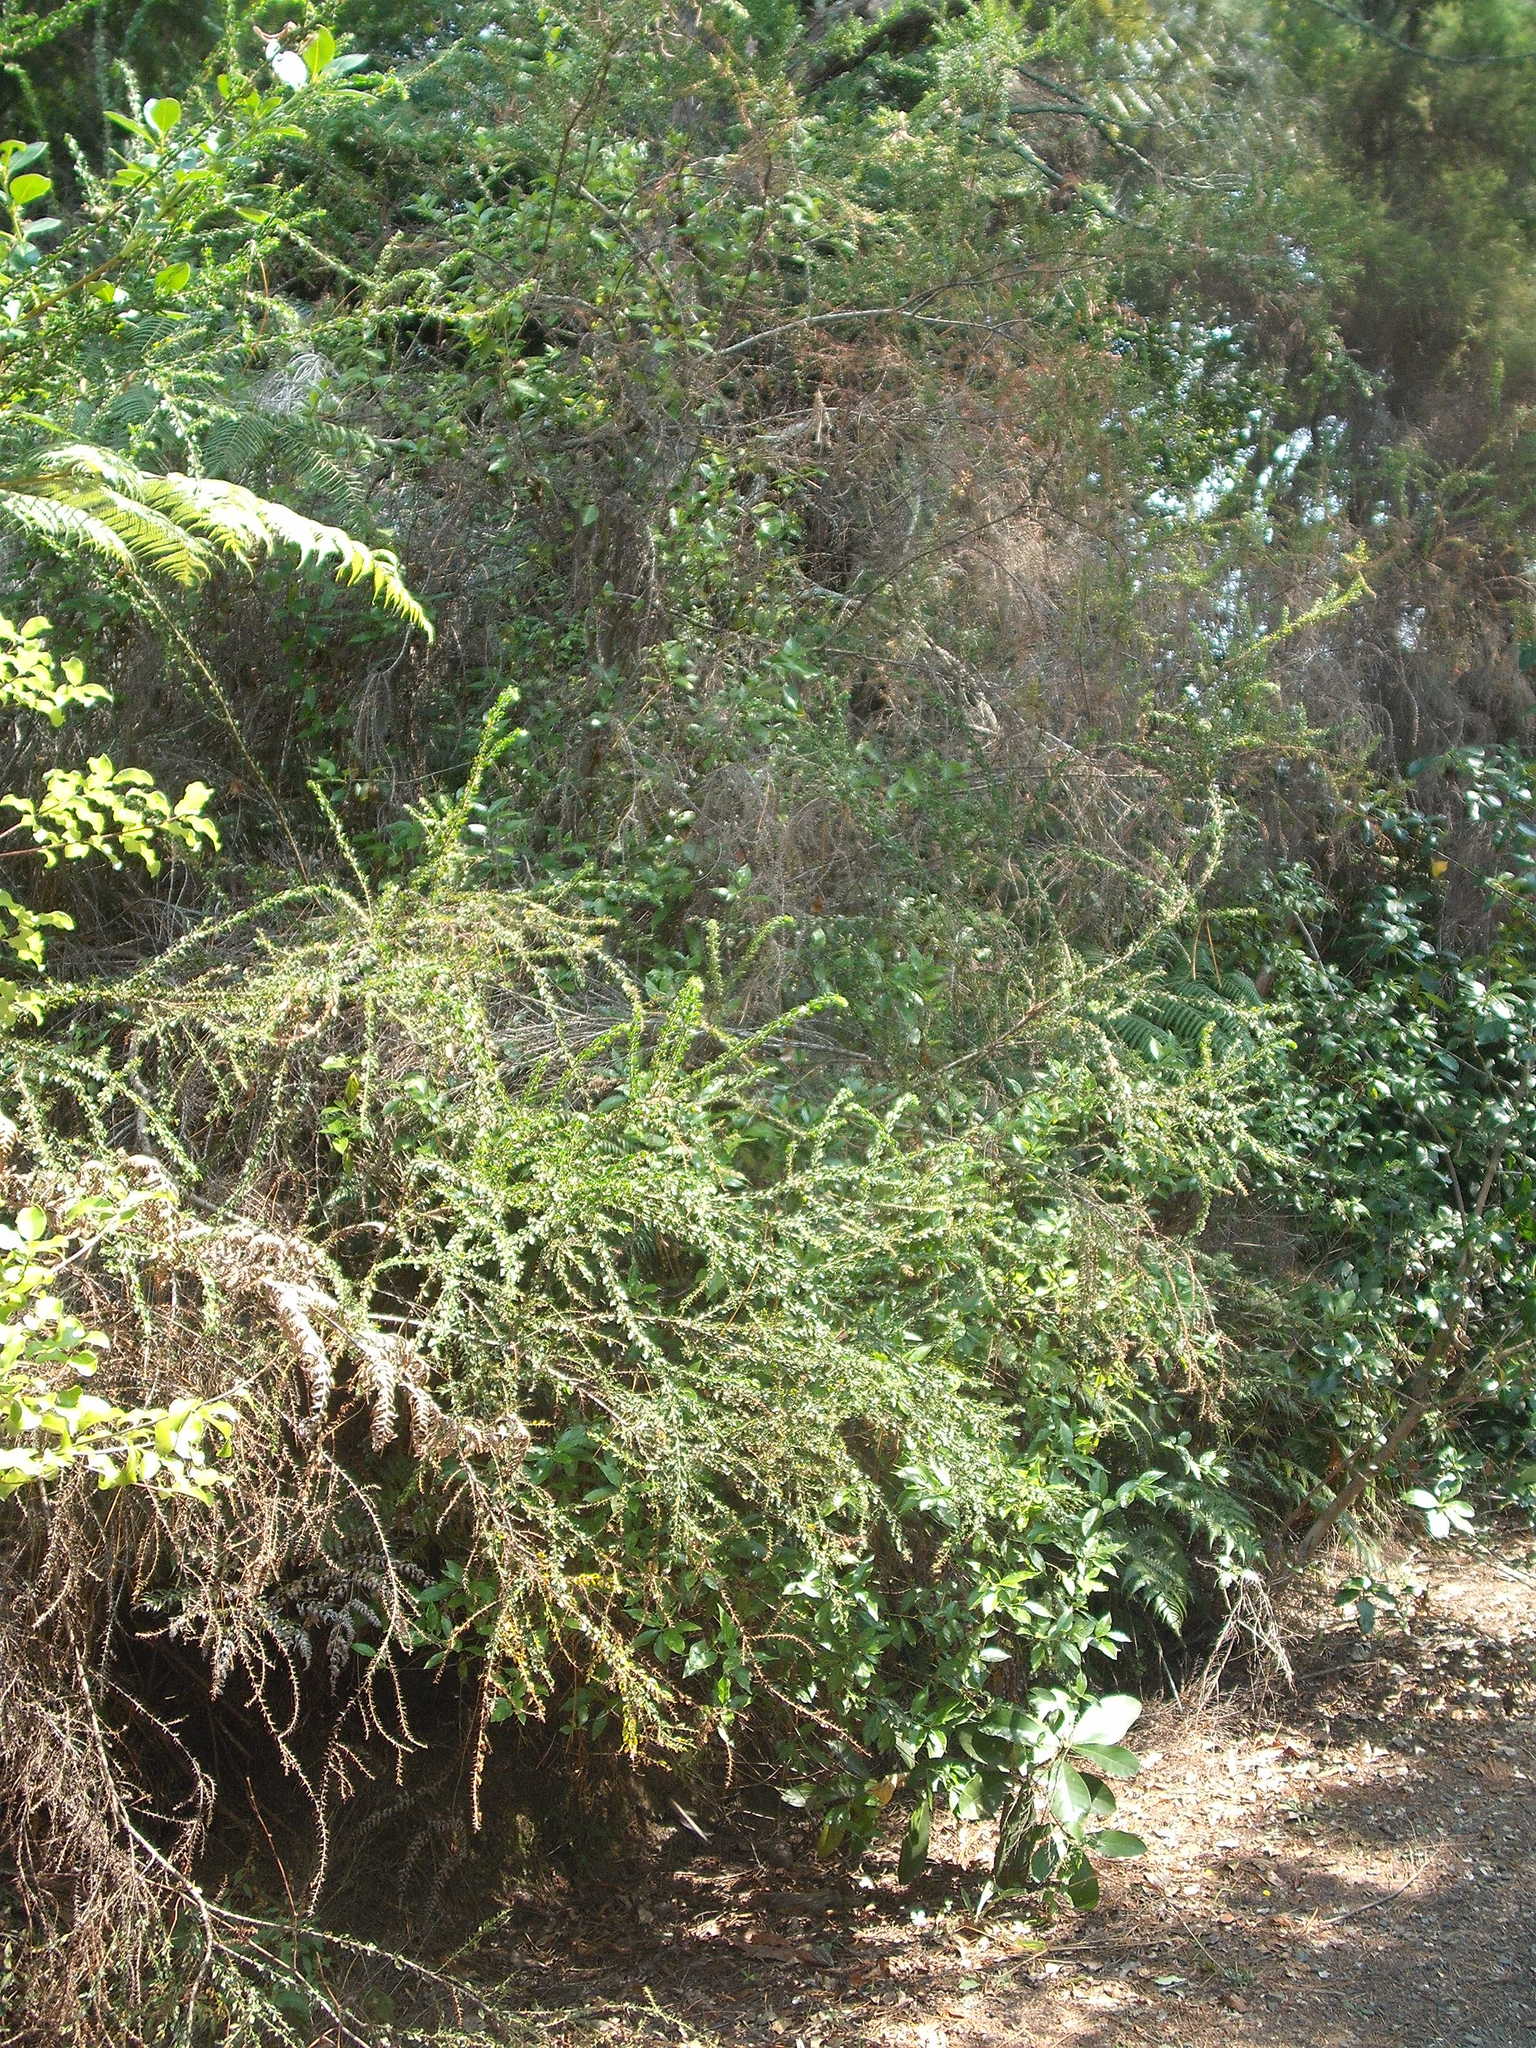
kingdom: Plantae
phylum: Tracheophyta
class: Magnoliopsida
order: Fabales
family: Fabaceae
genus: Acacia
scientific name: Acacia paradoxa
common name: Paradox acacia
